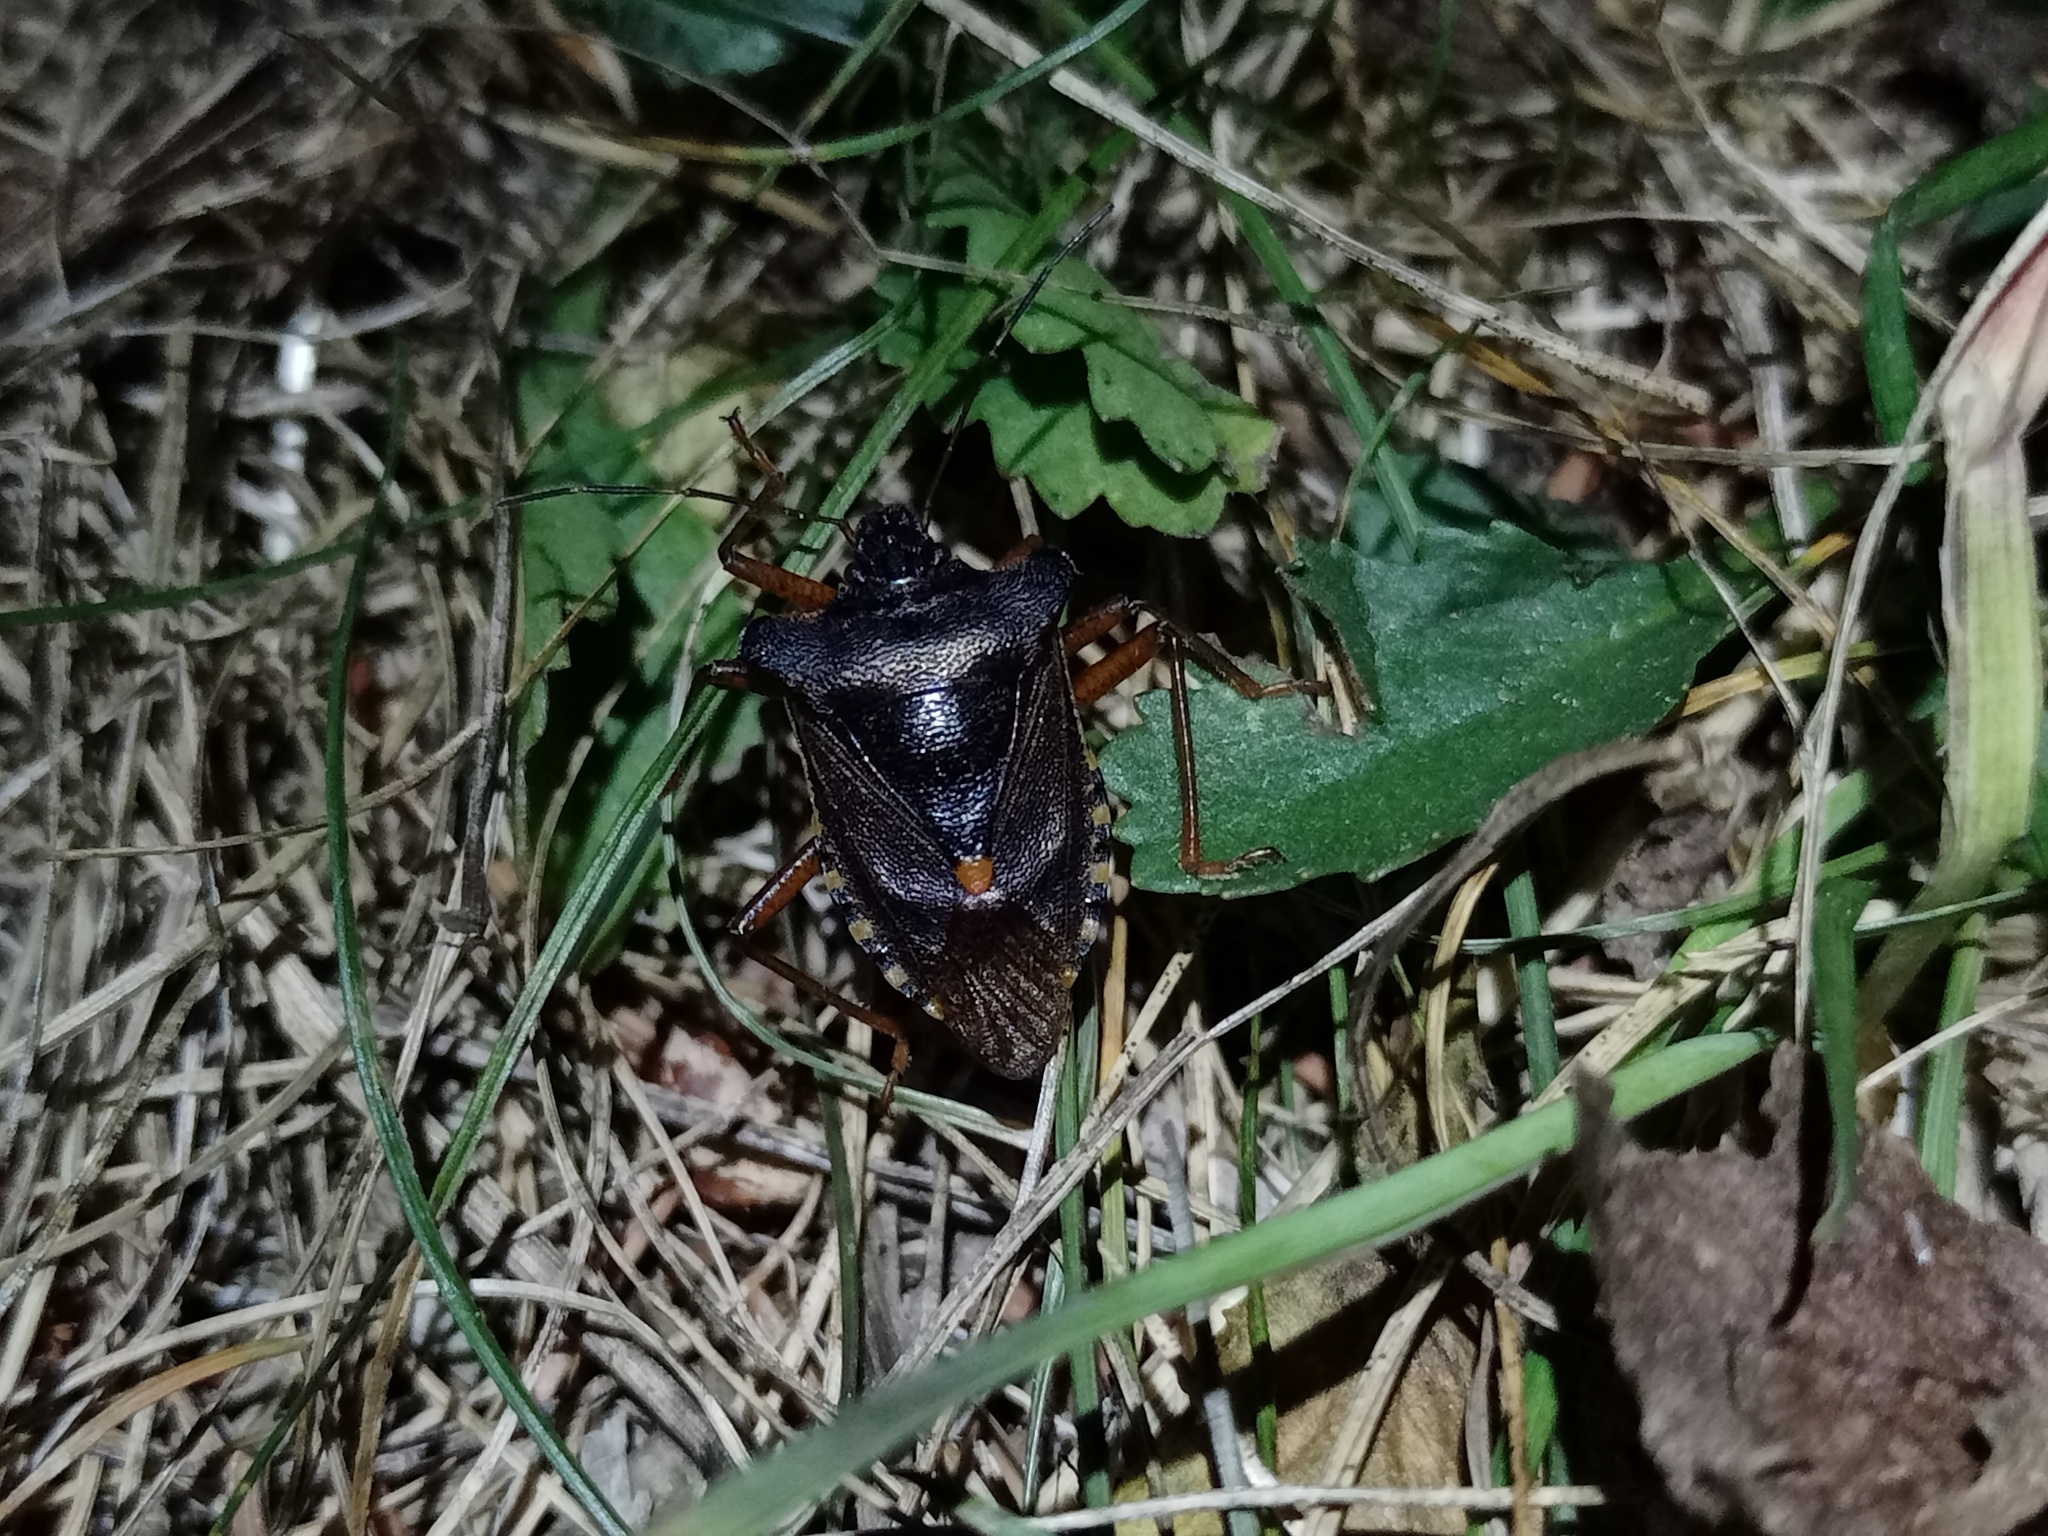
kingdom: Animalia
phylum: Arthropoda
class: Insecta
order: Hemiptera
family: Pentatomidae
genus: Pentatoma
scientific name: Pentatoma rufipes
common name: Forest bug
